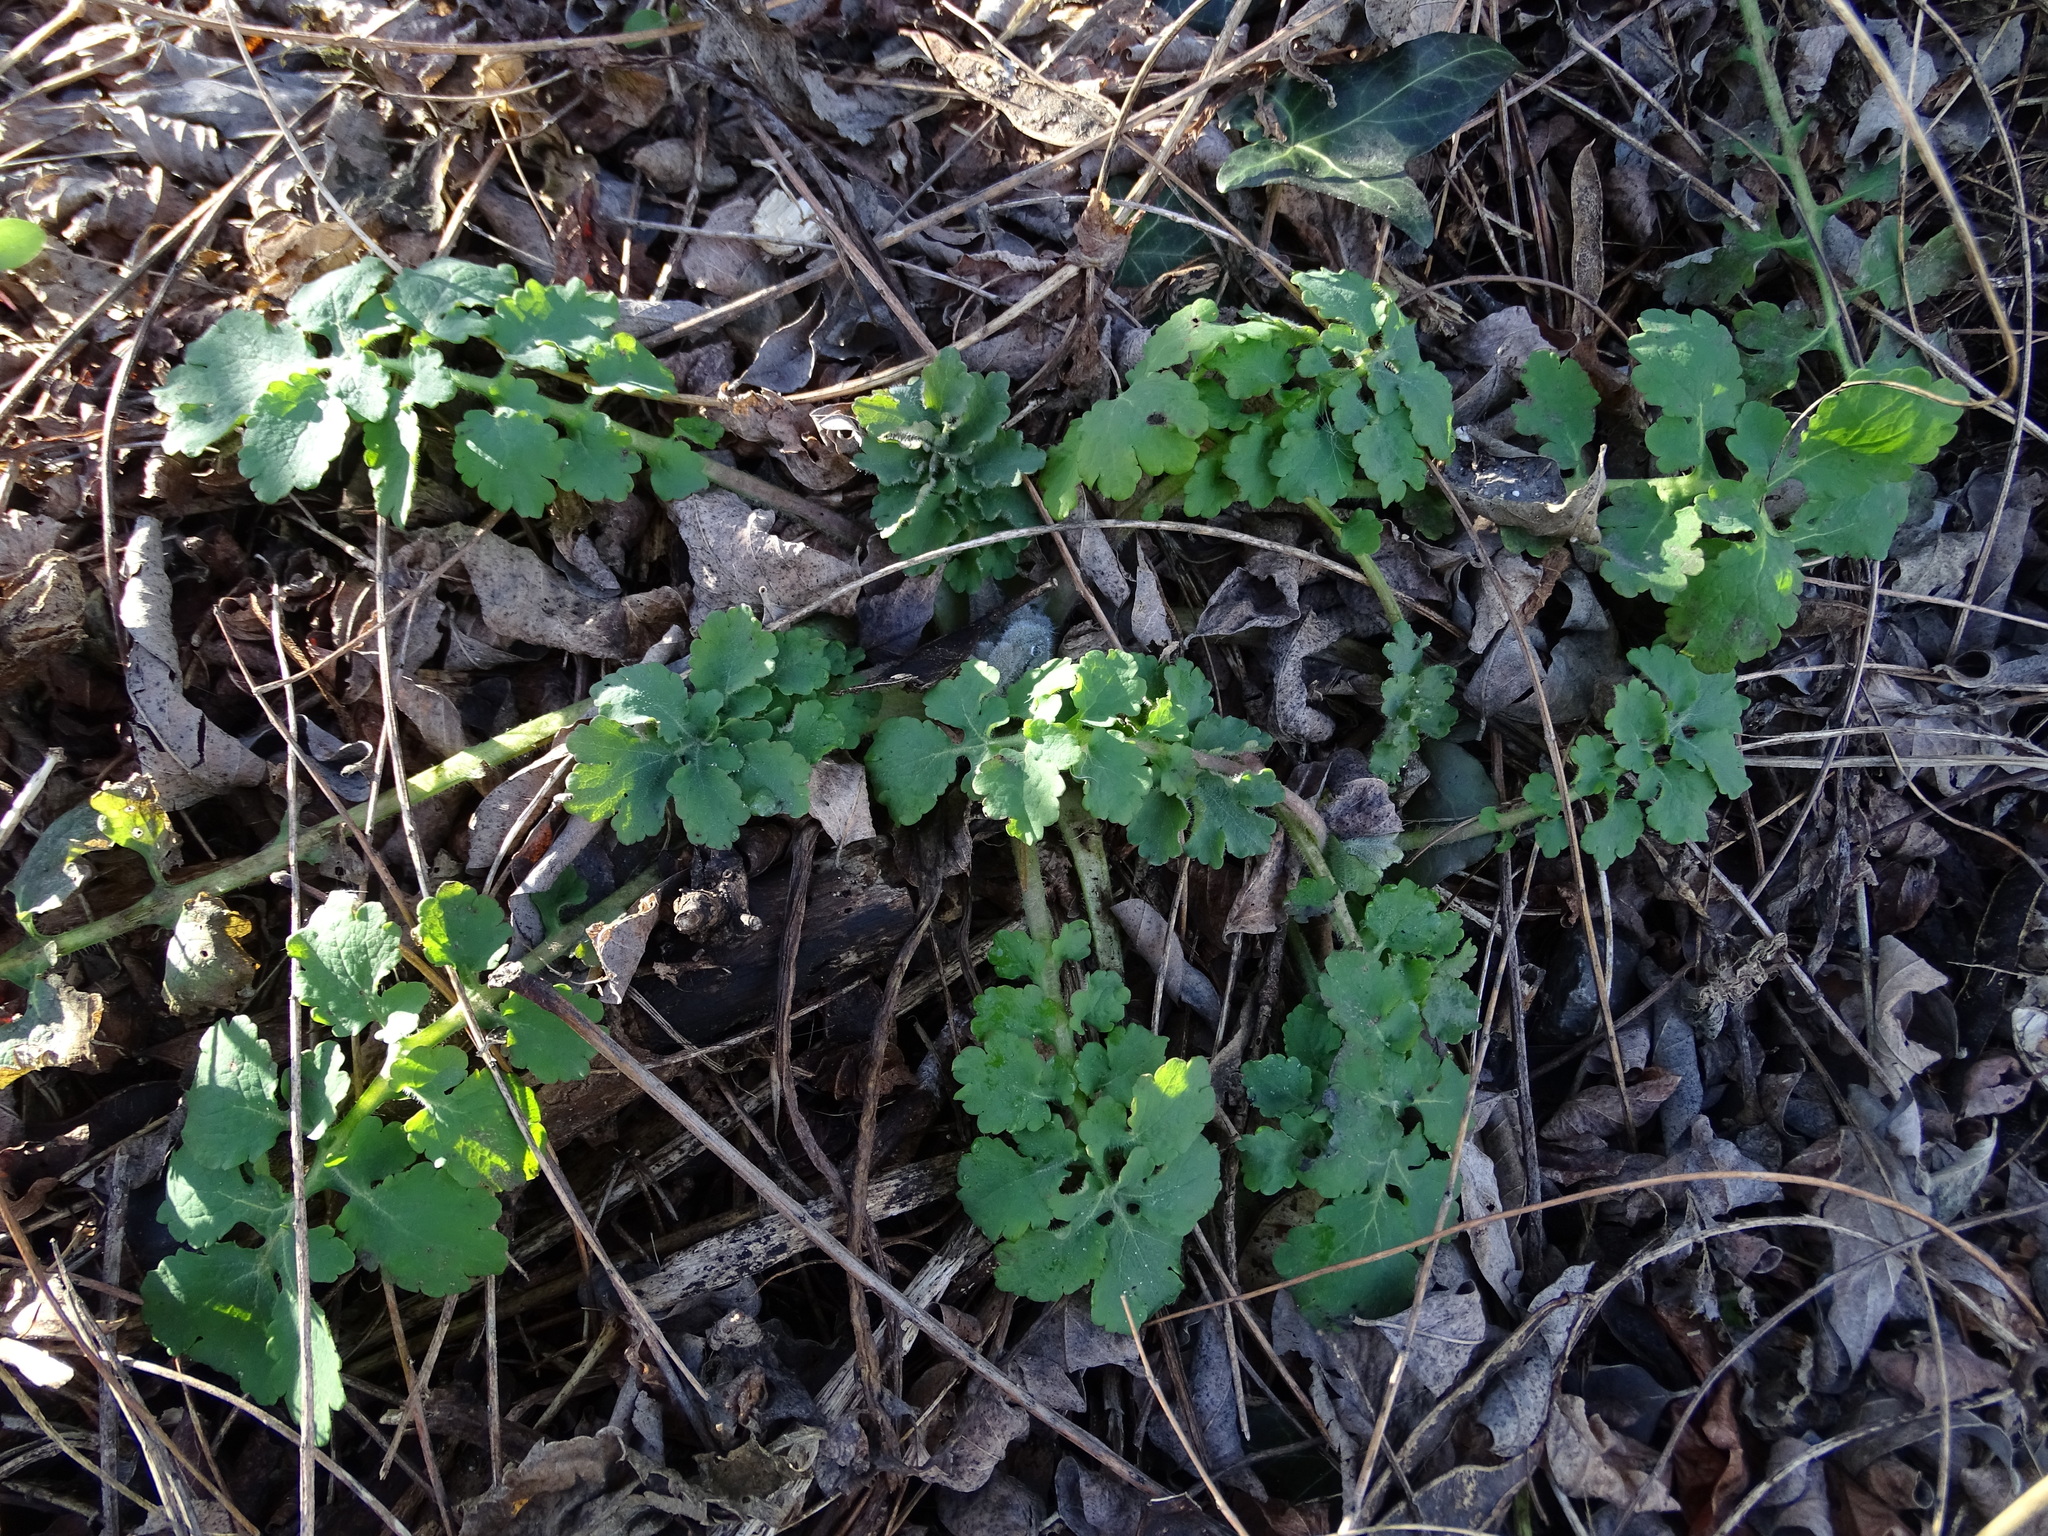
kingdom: Plantae
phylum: Tracheophyta
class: Magnoliopsida
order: Ranunculales
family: Papaveraceae
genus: Chelidonium
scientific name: Chelidonium majus
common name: Greater celandine
